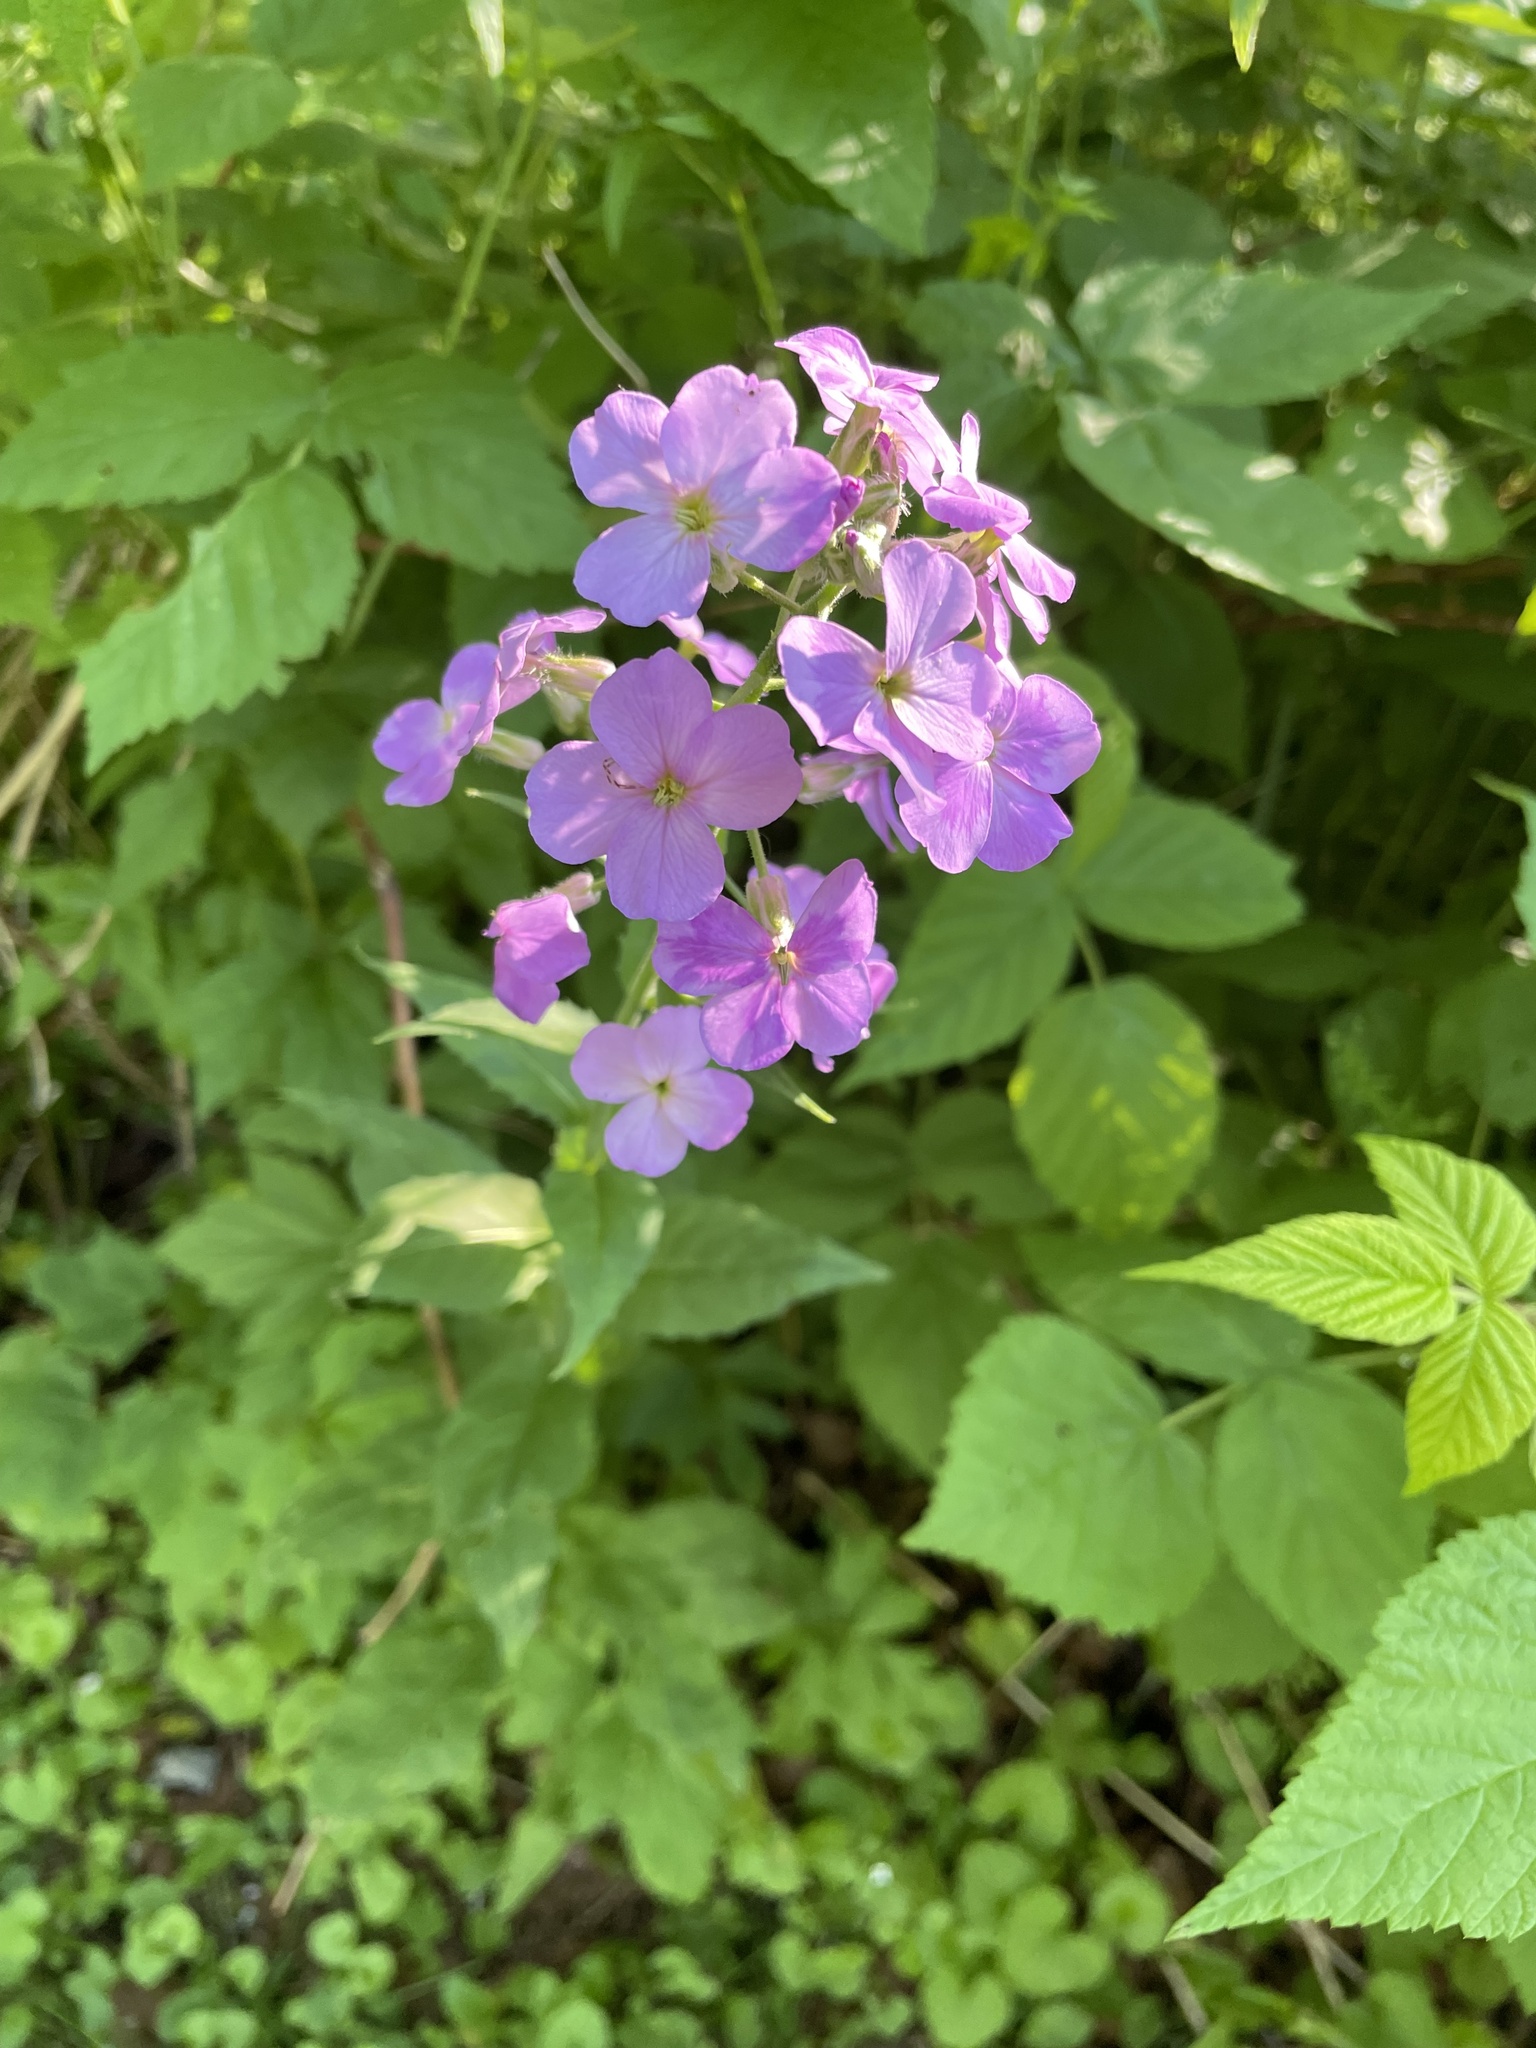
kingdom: Plantae
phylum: Tracheophyta
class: Magnoliopsida
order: Brassicales
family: Brassicaceae
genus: Hesperis
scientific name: Hesperis matronalis
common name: Dame's-violet
